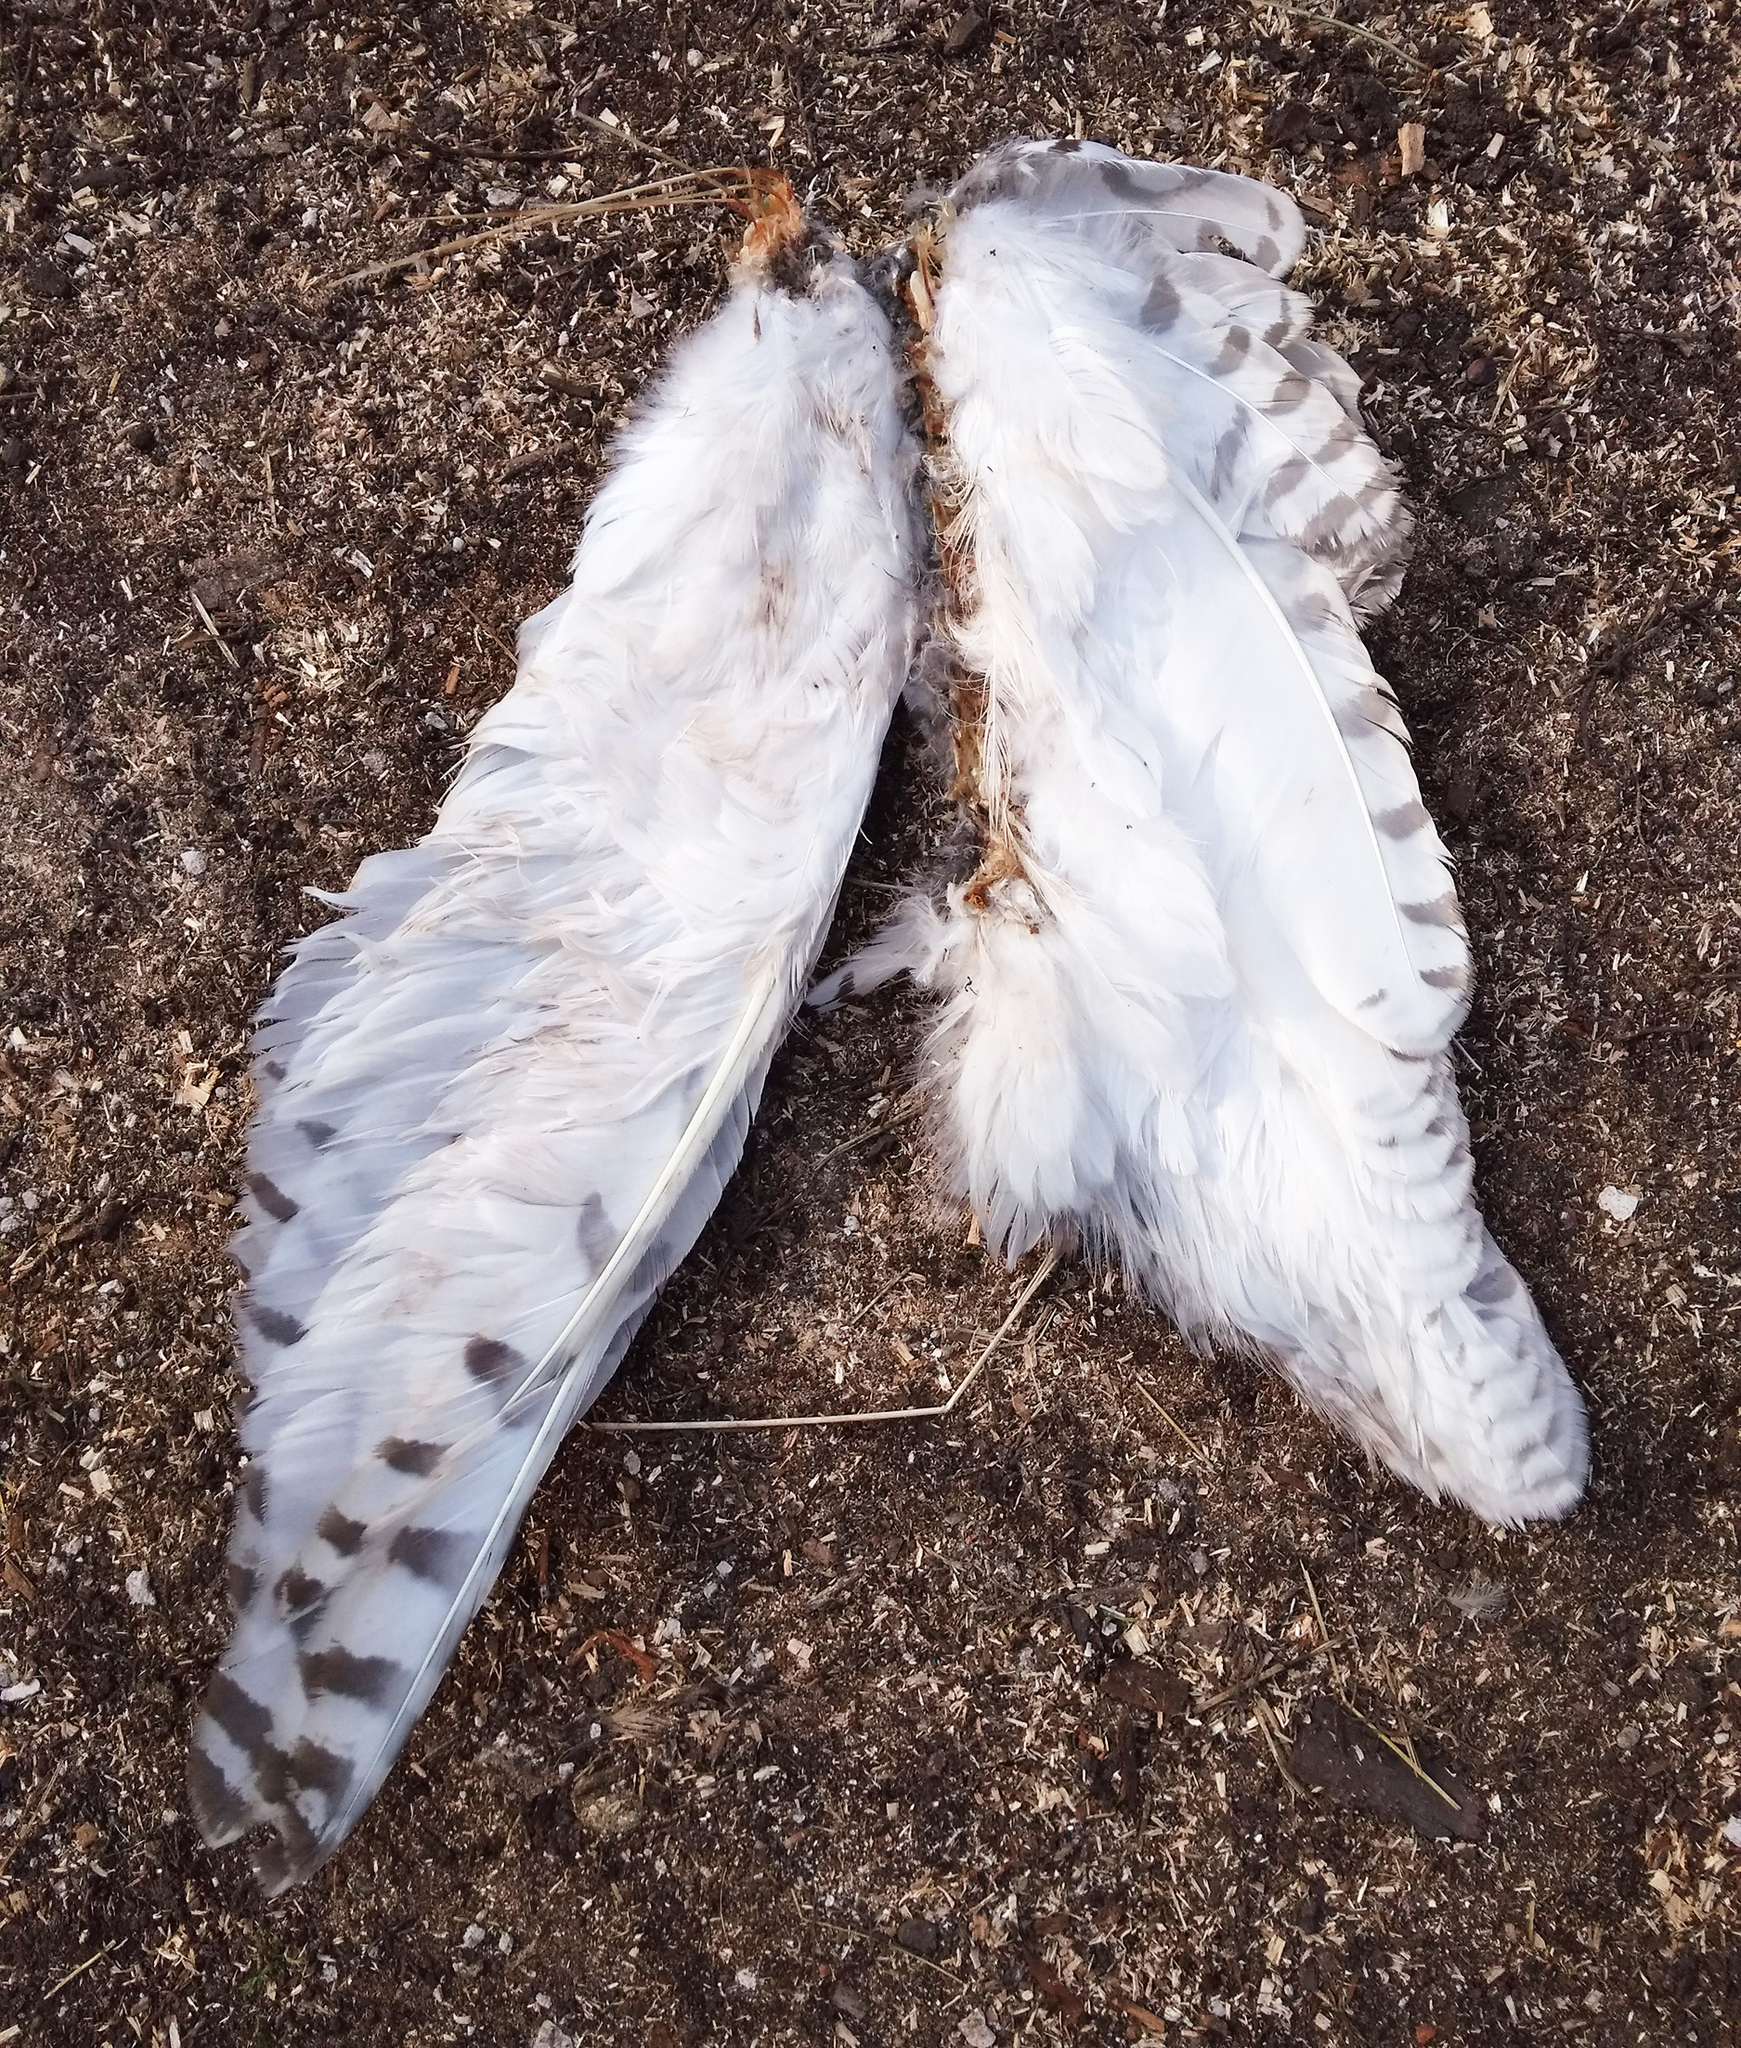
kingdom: Animalia
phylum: Chordata
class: Aves
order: Strigiformes
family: Strigidae
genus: Bubo
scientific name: Bubo scandiacus
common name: Snowy owl
